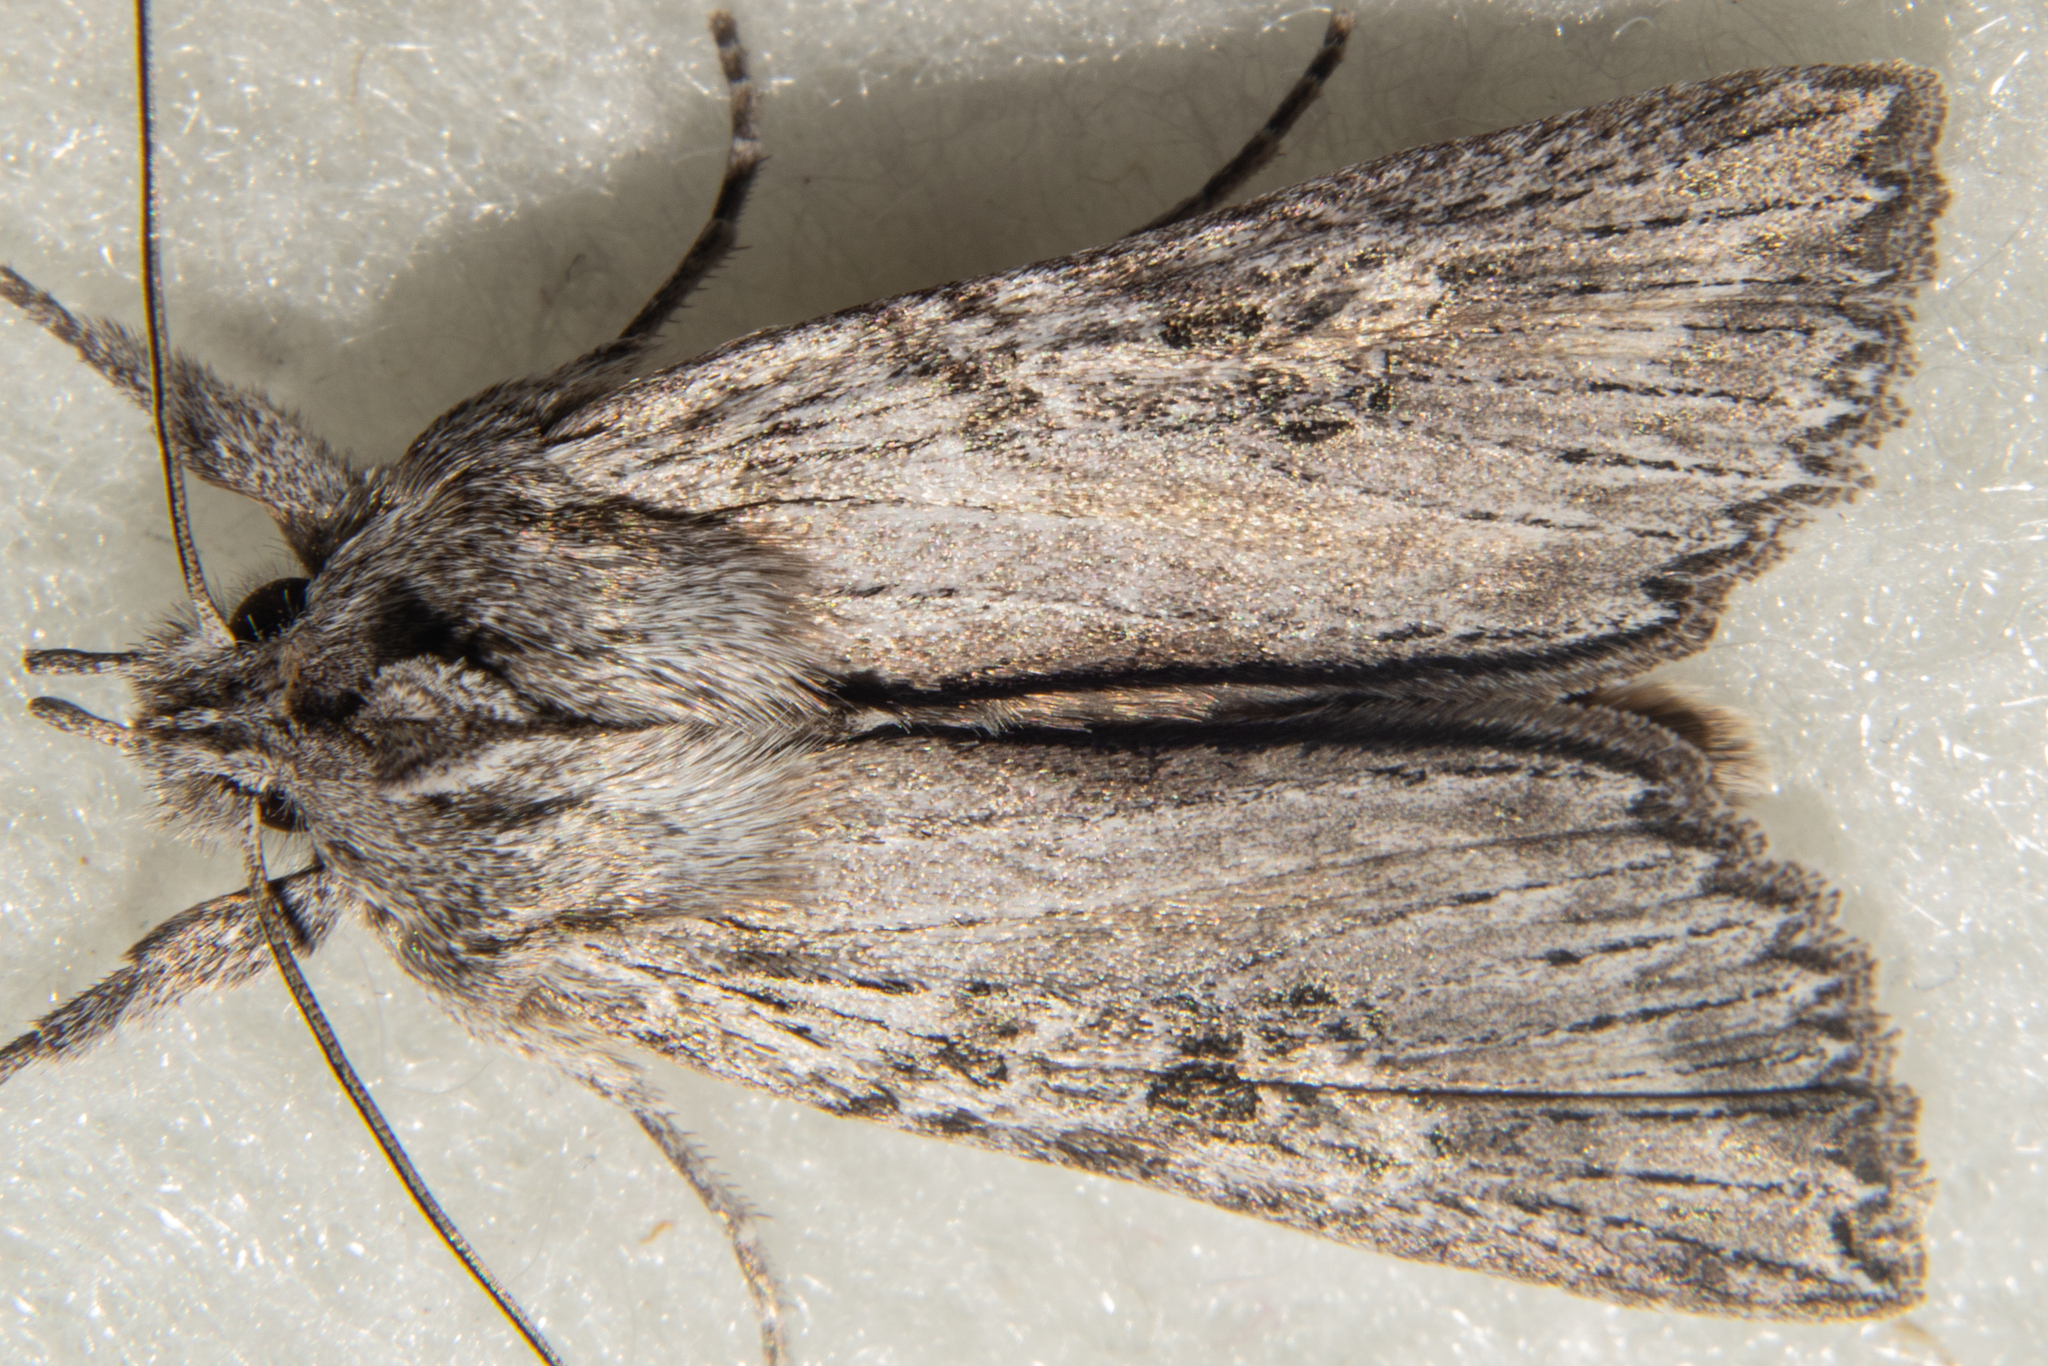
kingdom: Animalia
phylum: Arthropoda
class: Insecta
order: Lepidoptera
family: Noctuidae
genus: Physetica
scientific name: Physetica phricias
